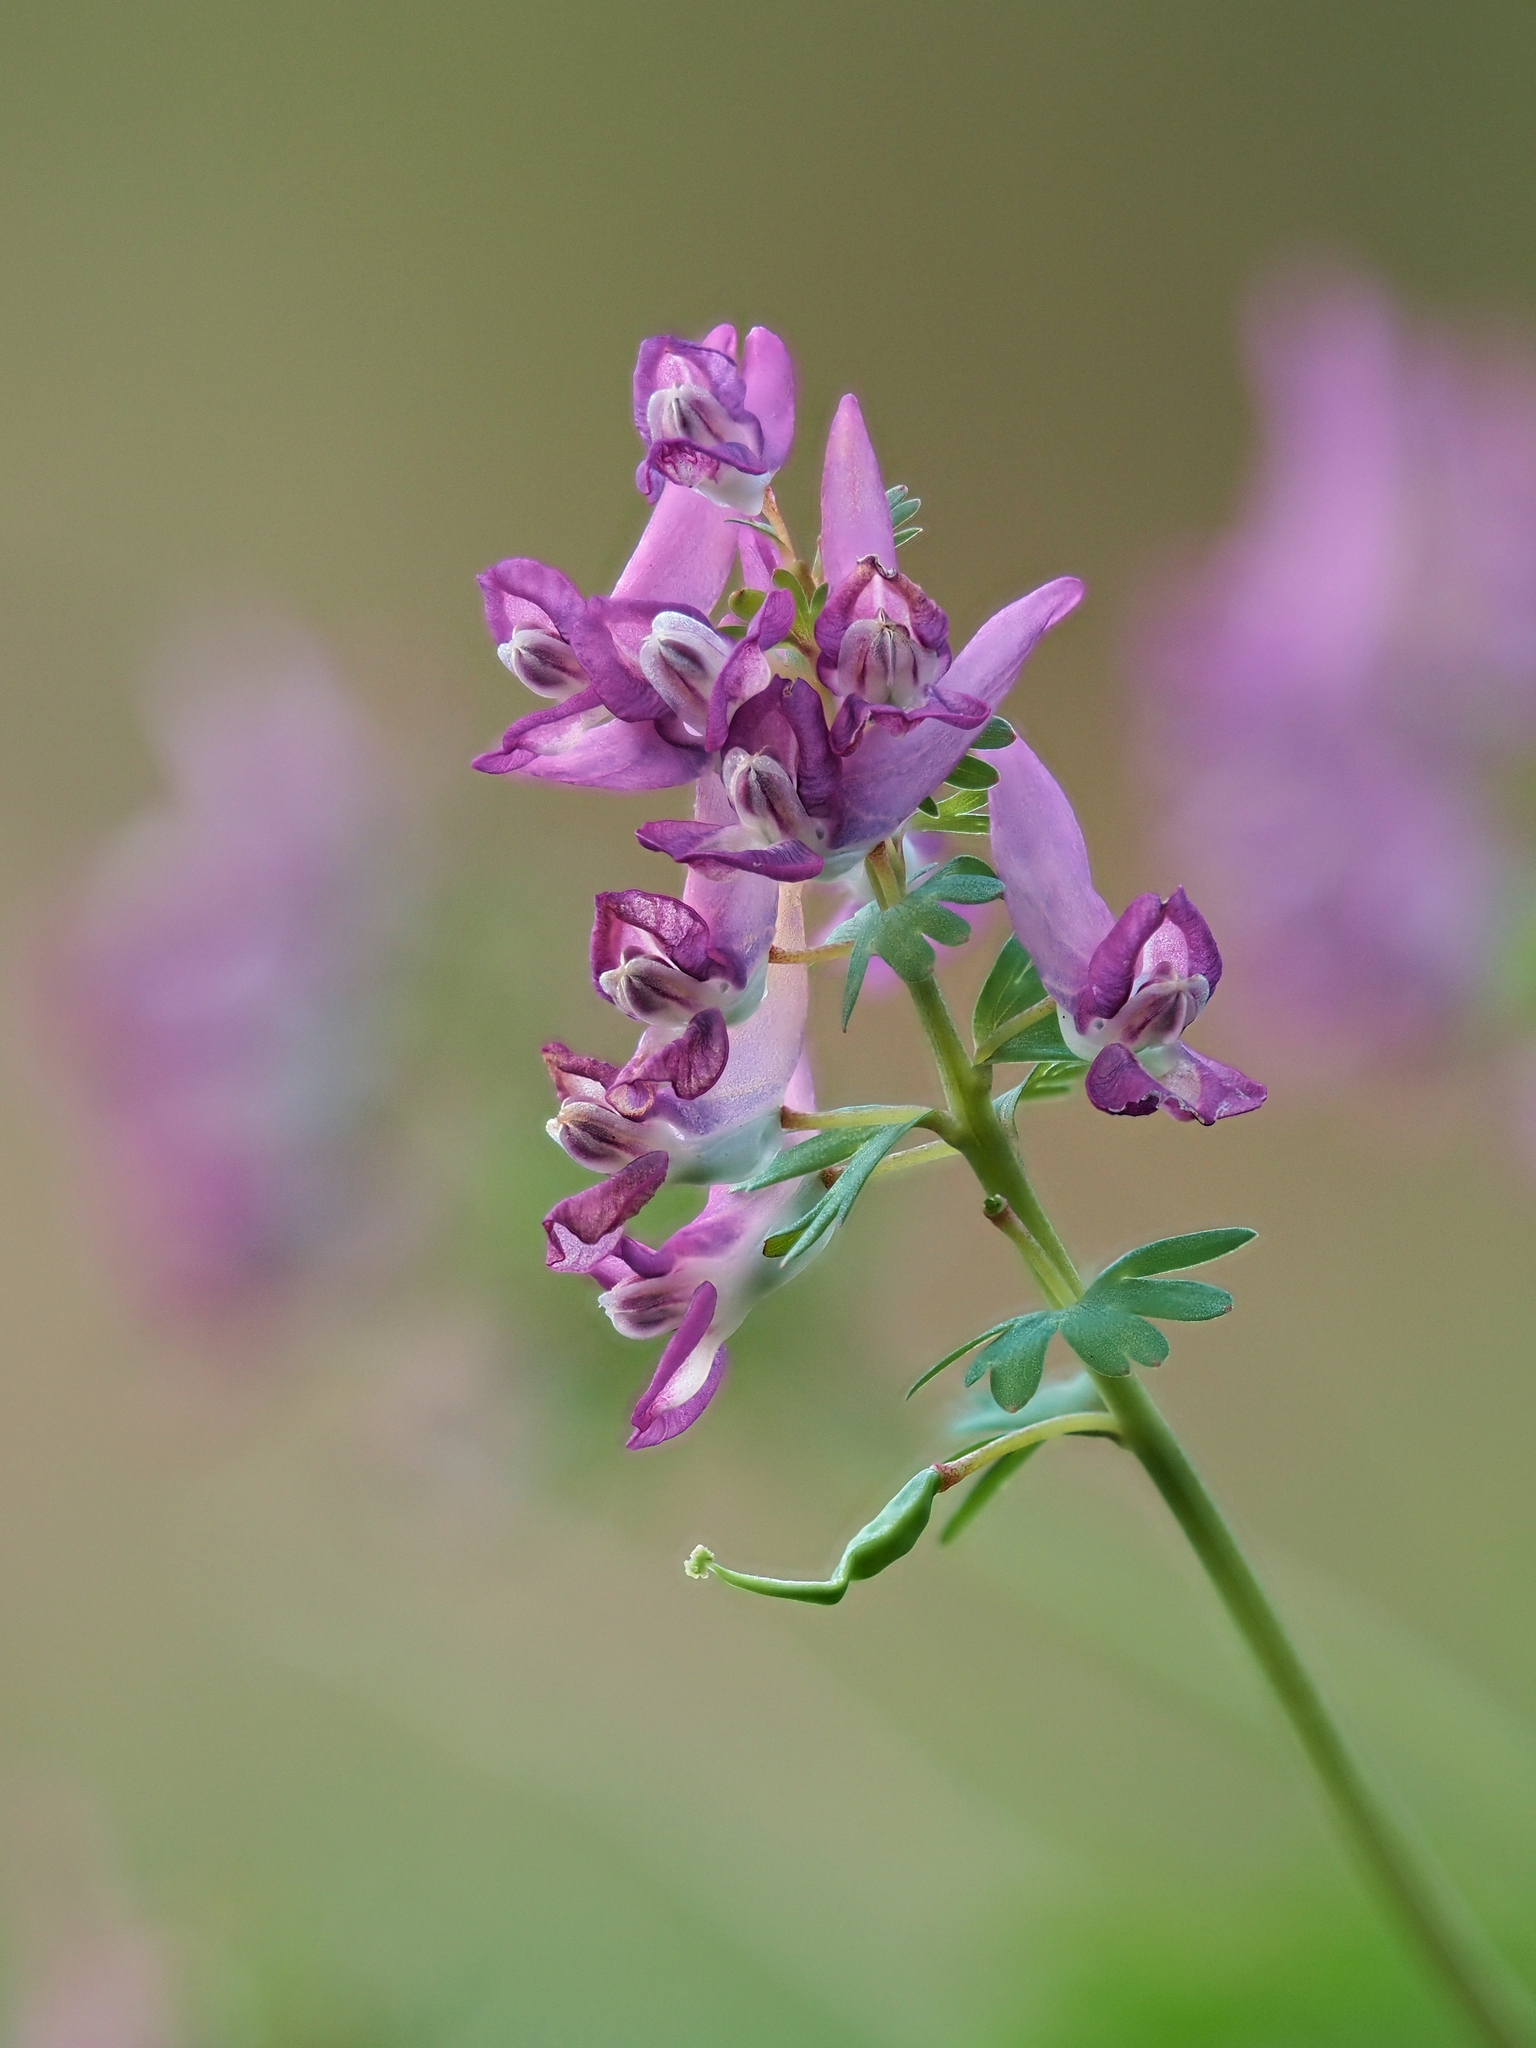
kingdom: Plantae
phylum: Tracheophyta
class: Magnoliopsida
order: Ranunculales
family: Papaveraceae
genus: Corydalis
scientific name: Corydalis solida
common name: Bird-in-a-bush
